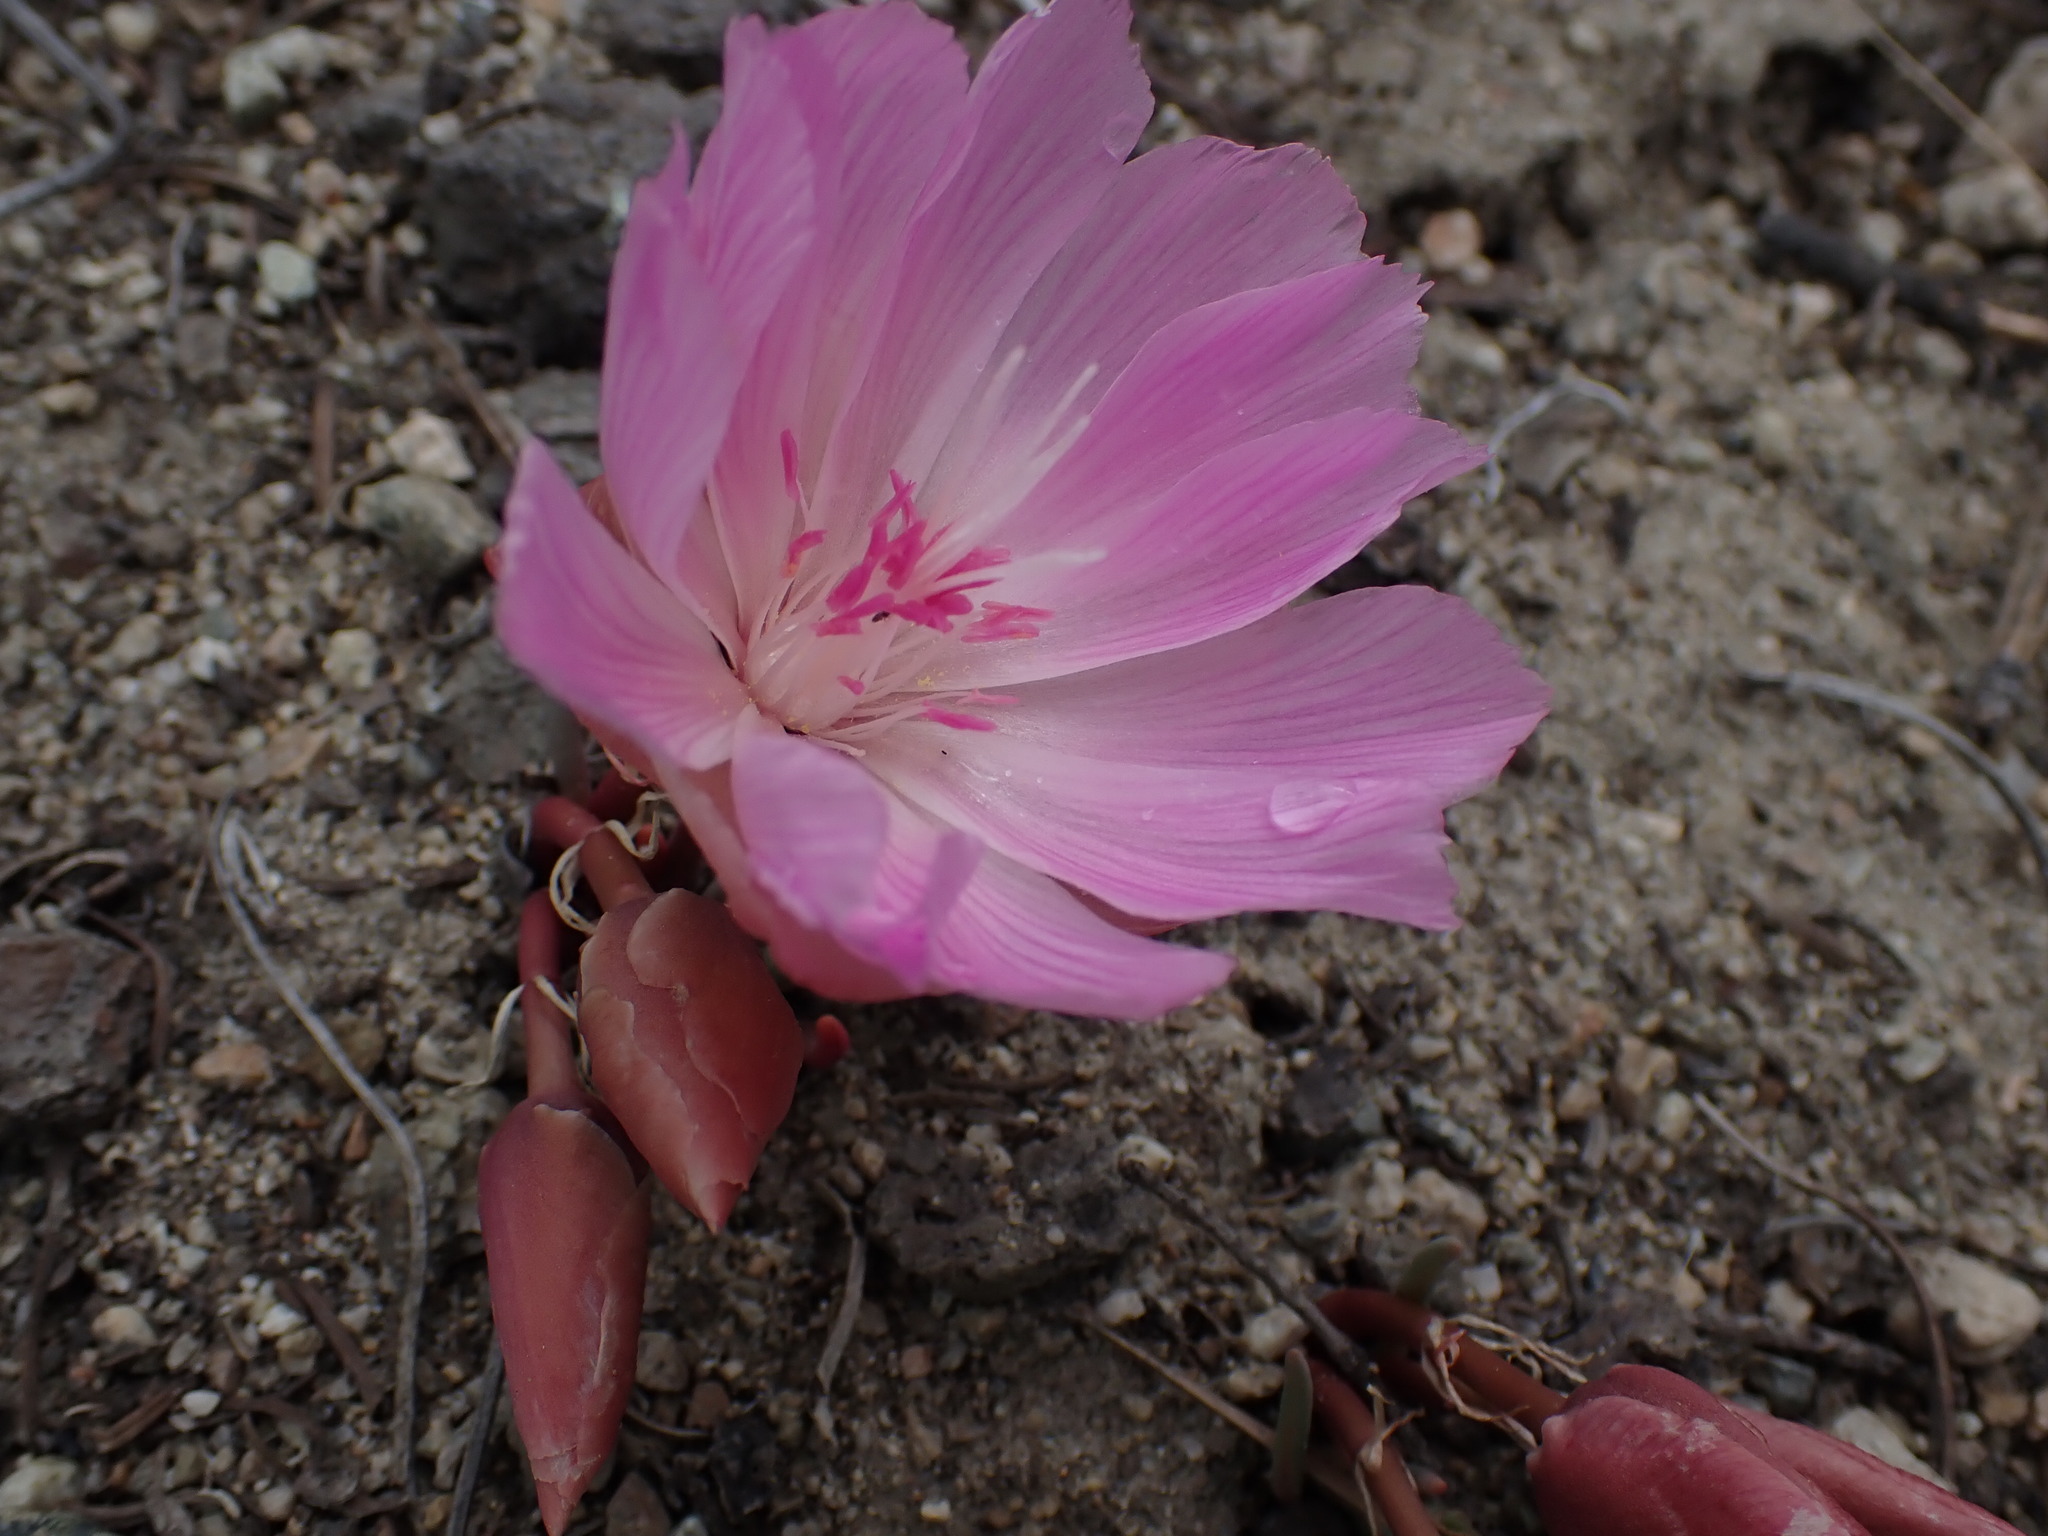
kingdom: Plantae
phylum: Tracheophyta
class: Magnoliopsida
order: Caryophyllales
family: Montiaceae
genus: Lewisia
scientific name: Lewisia rediviva
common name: Bitter-root
